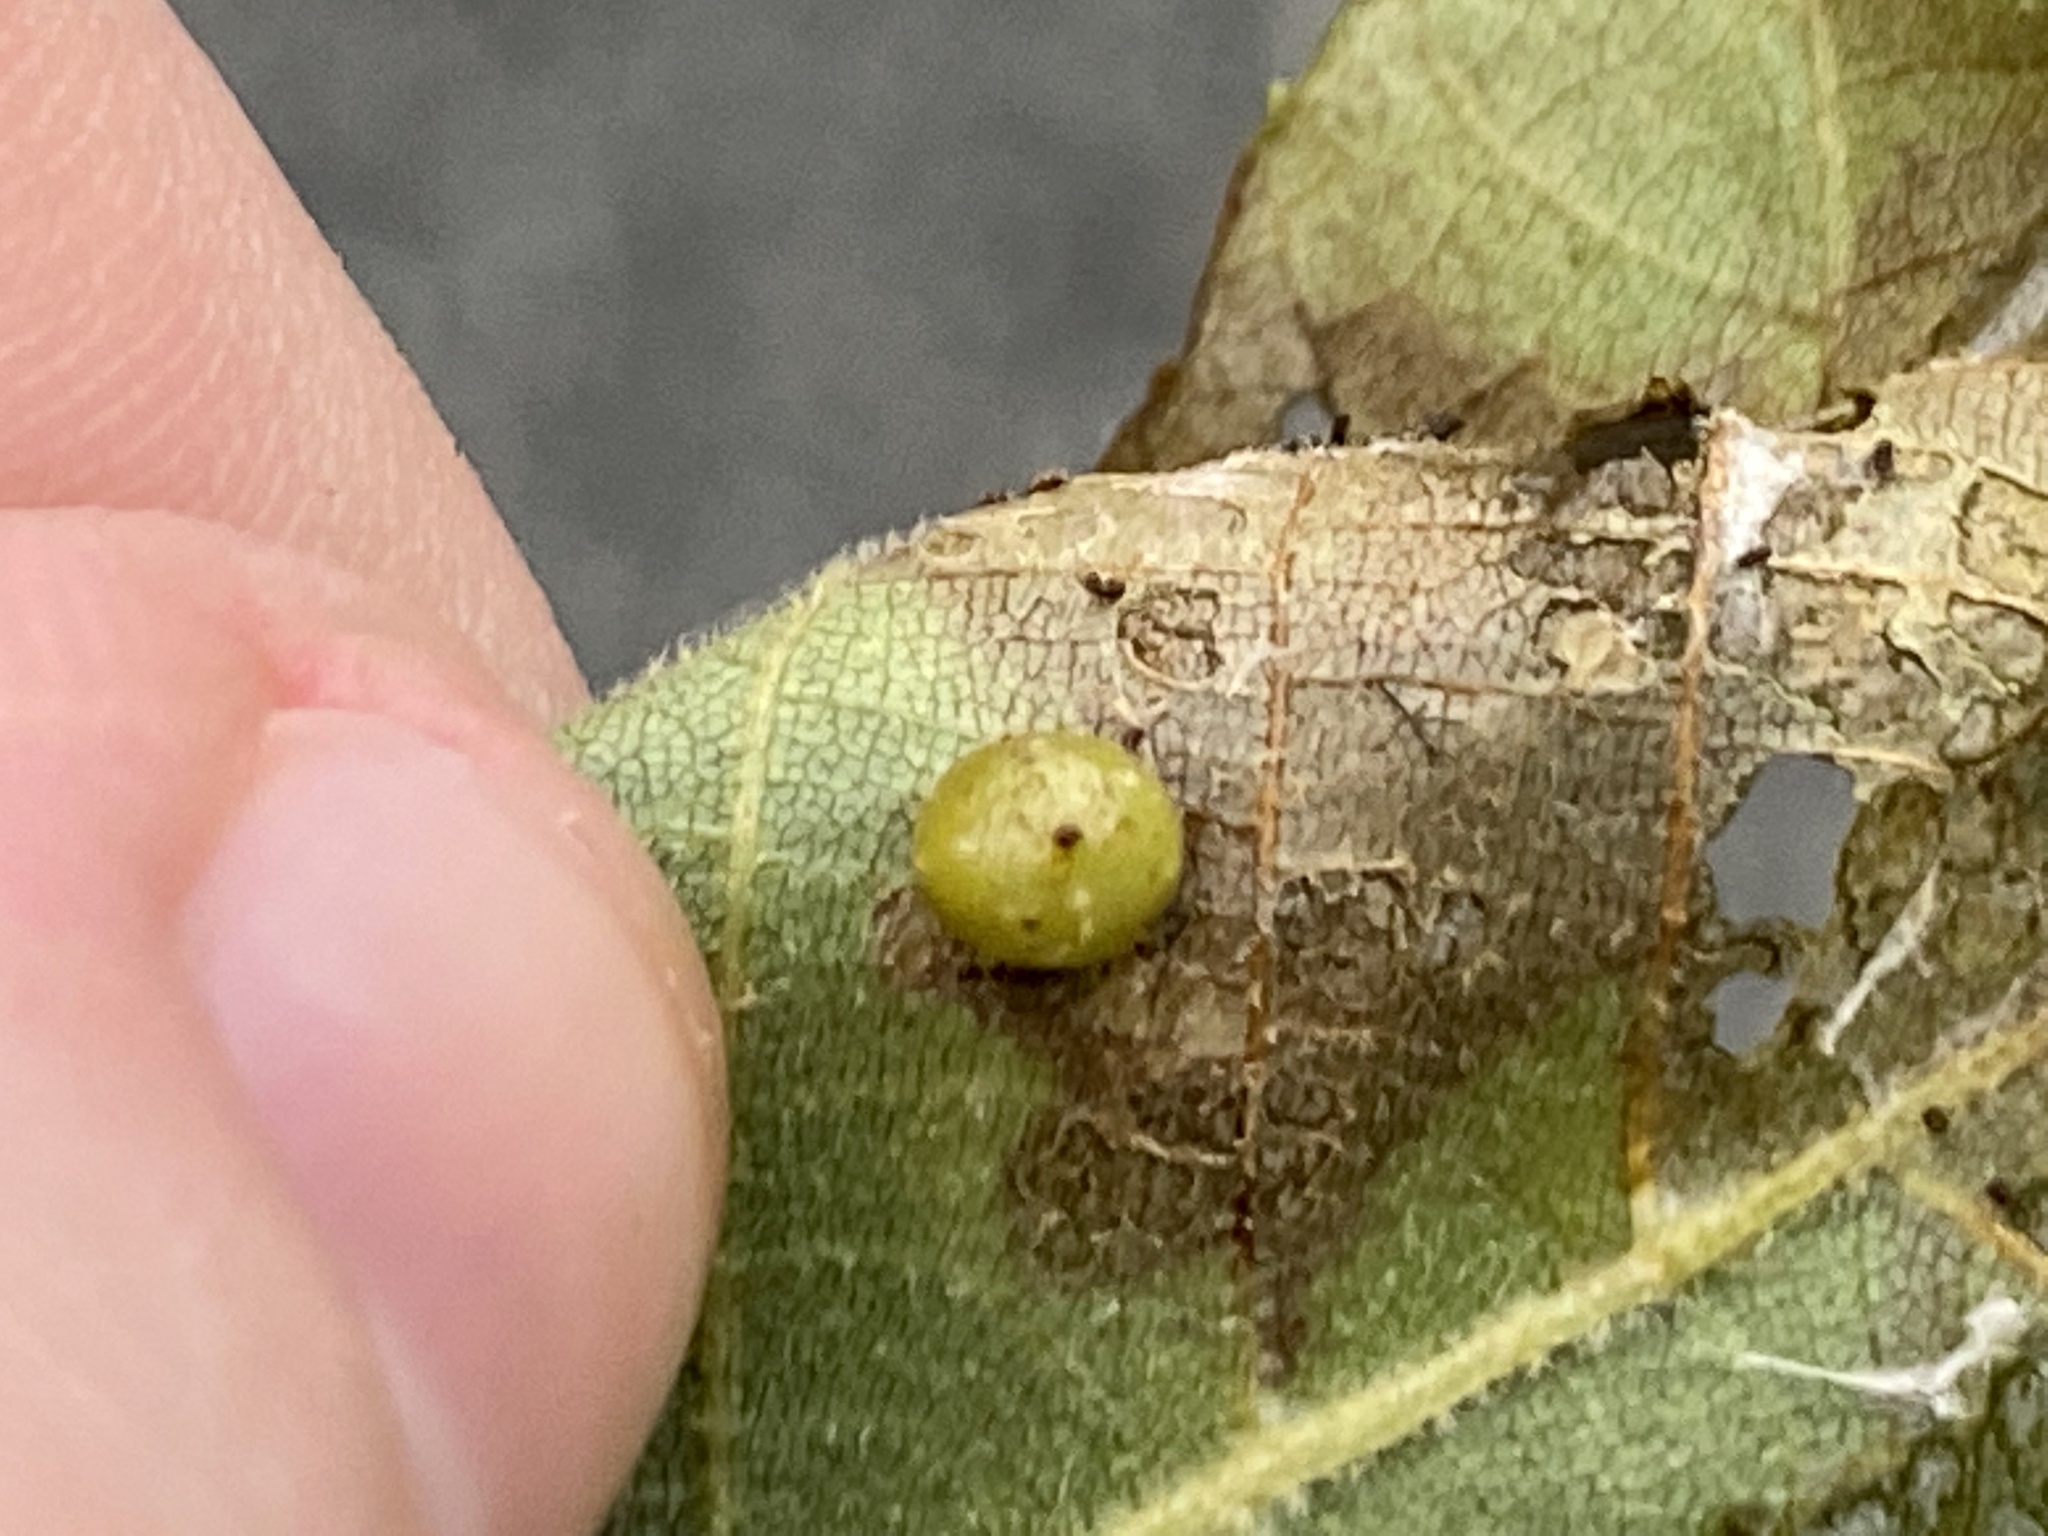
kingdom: Animalia
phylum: Arthropoda
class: Insecta
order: Diptera
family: Cecidomyiidae
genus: Caryomyia
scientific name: Caryomyia tuberculata
